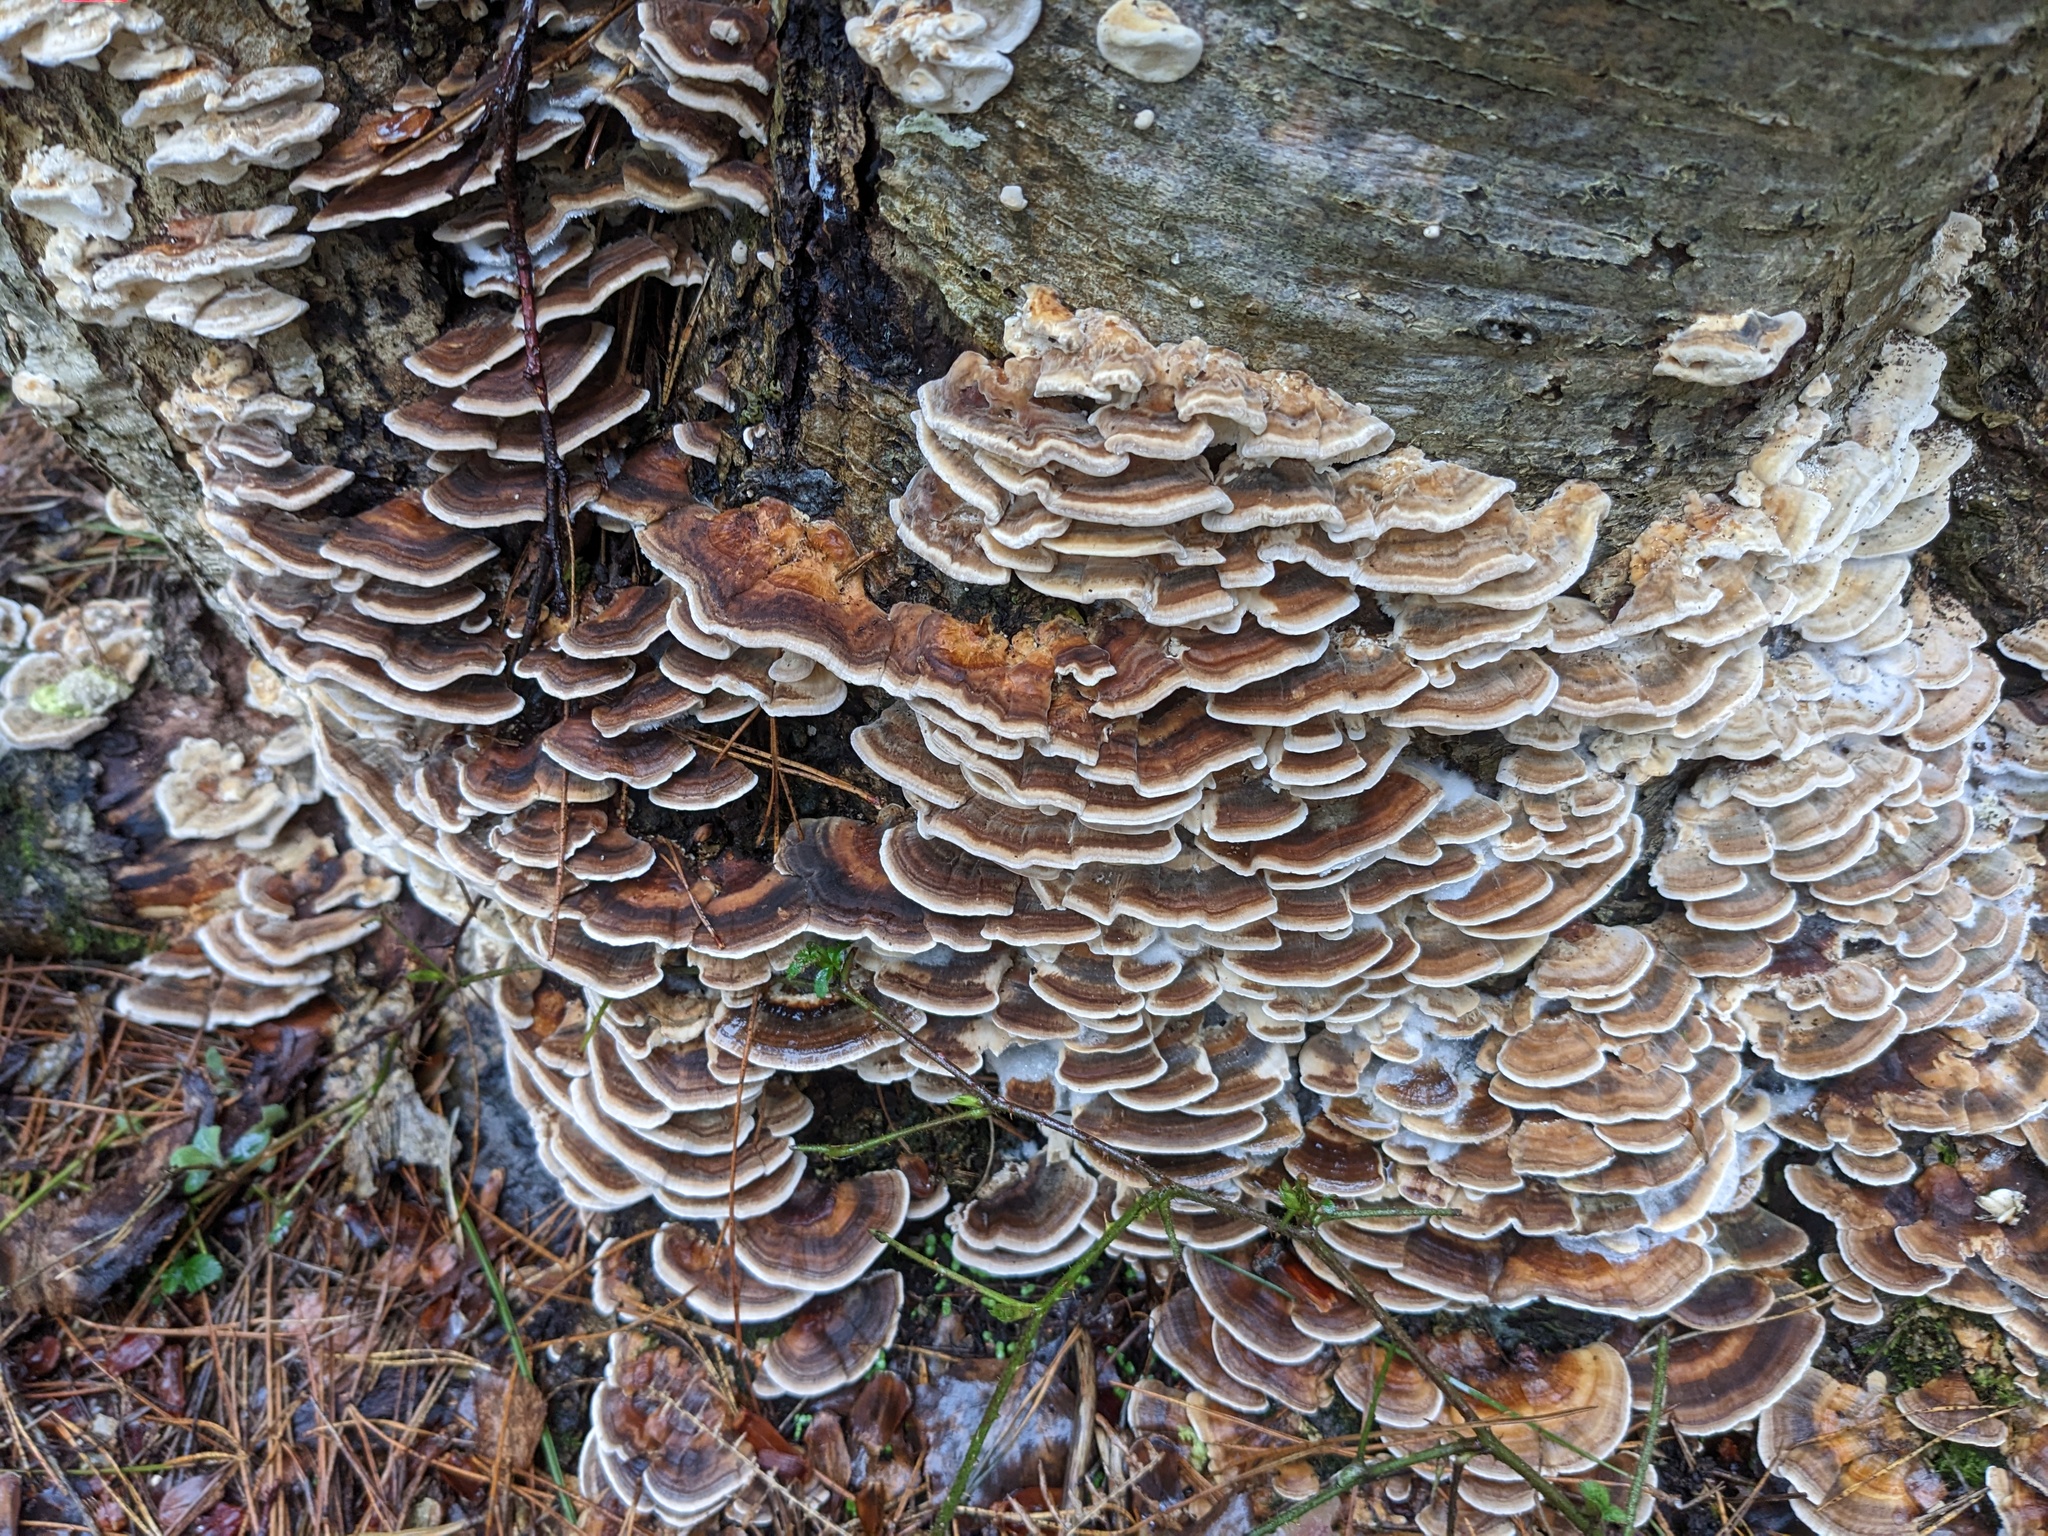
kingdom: Fungi
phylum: Basidiomycota
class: Agaricomycetes
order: Polyporales
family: Polyporaceae
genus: Trametes
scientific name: Trametes versicolor
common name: Turkeytail
